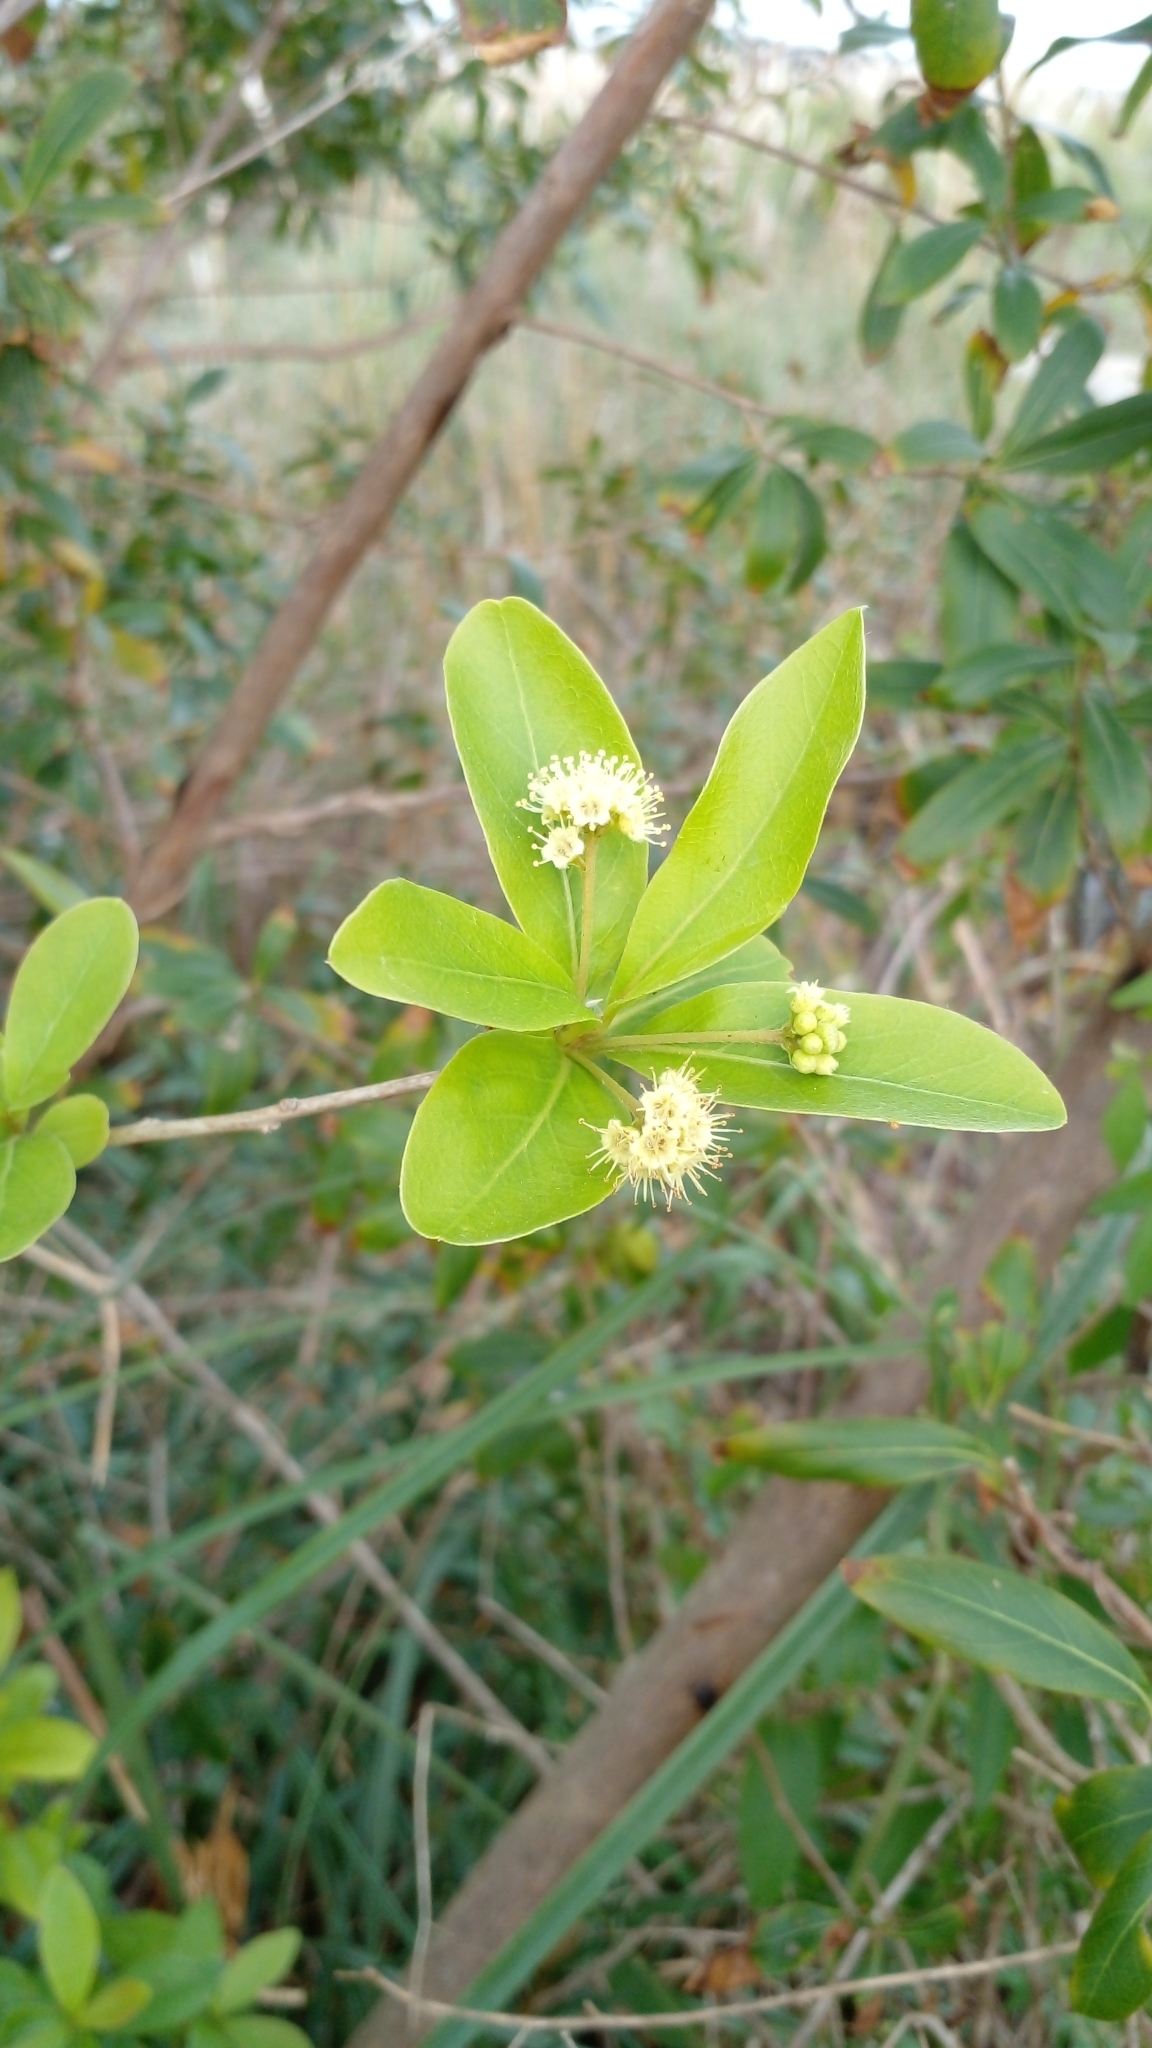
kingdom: Plantae
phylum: Tracheophyta
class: Magnoliopsida
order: Myrtales
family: Combretaceae
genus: Terminalia
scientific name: Terminalia australis
